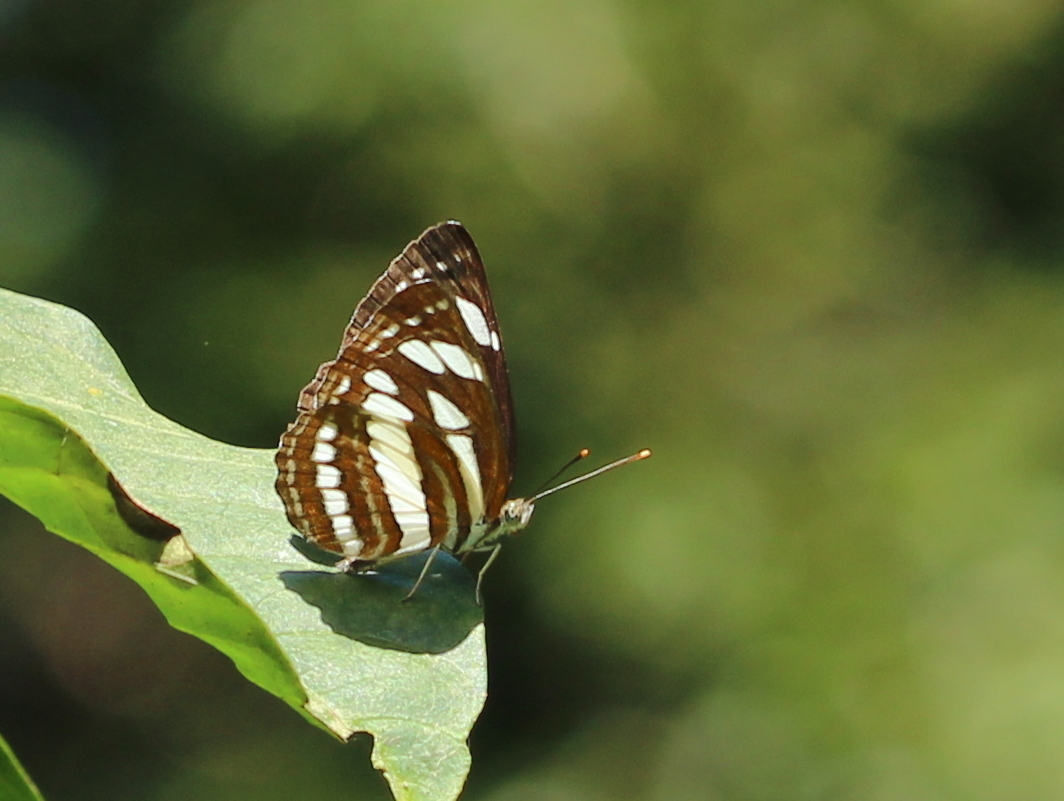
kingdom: Animalia
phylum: Arthropoda
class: Insecta
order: Lepidoptera
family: Nymphalidae
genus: Neptis
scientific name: Neptis hylas
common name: Common sailer
